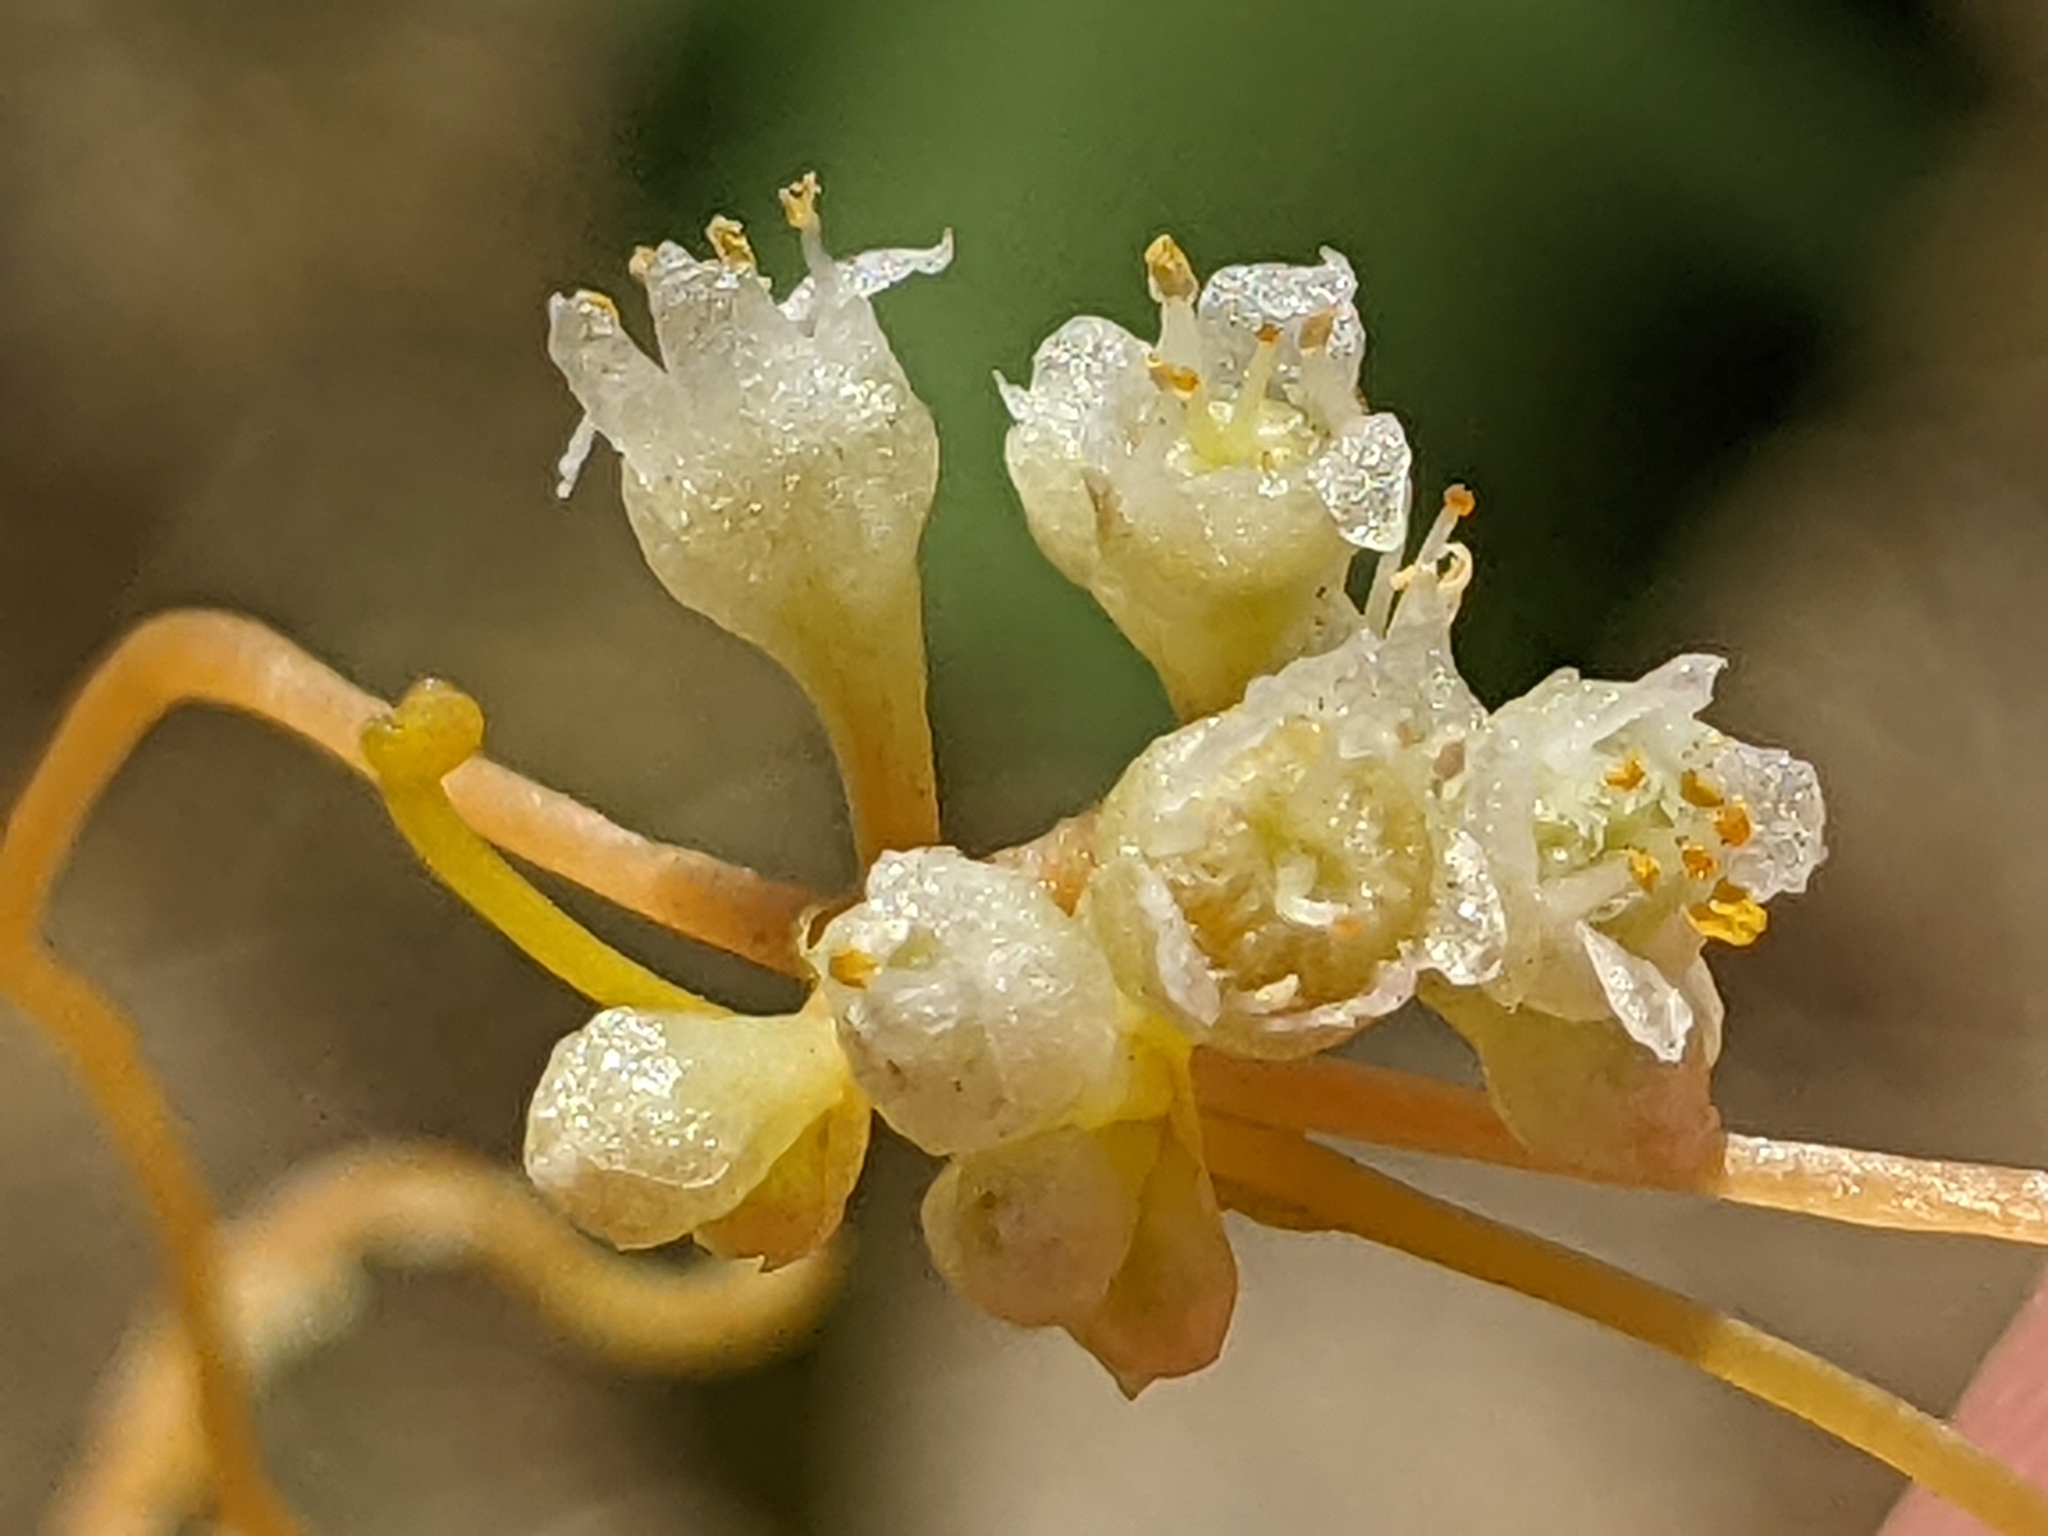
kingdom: Plantae
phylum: Tracheophyta
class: Magnoliopsida
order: Solanales
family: Convolvulaceae
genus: Cuscuta
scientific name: Cuscuta campestris
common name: Yellow dodder
